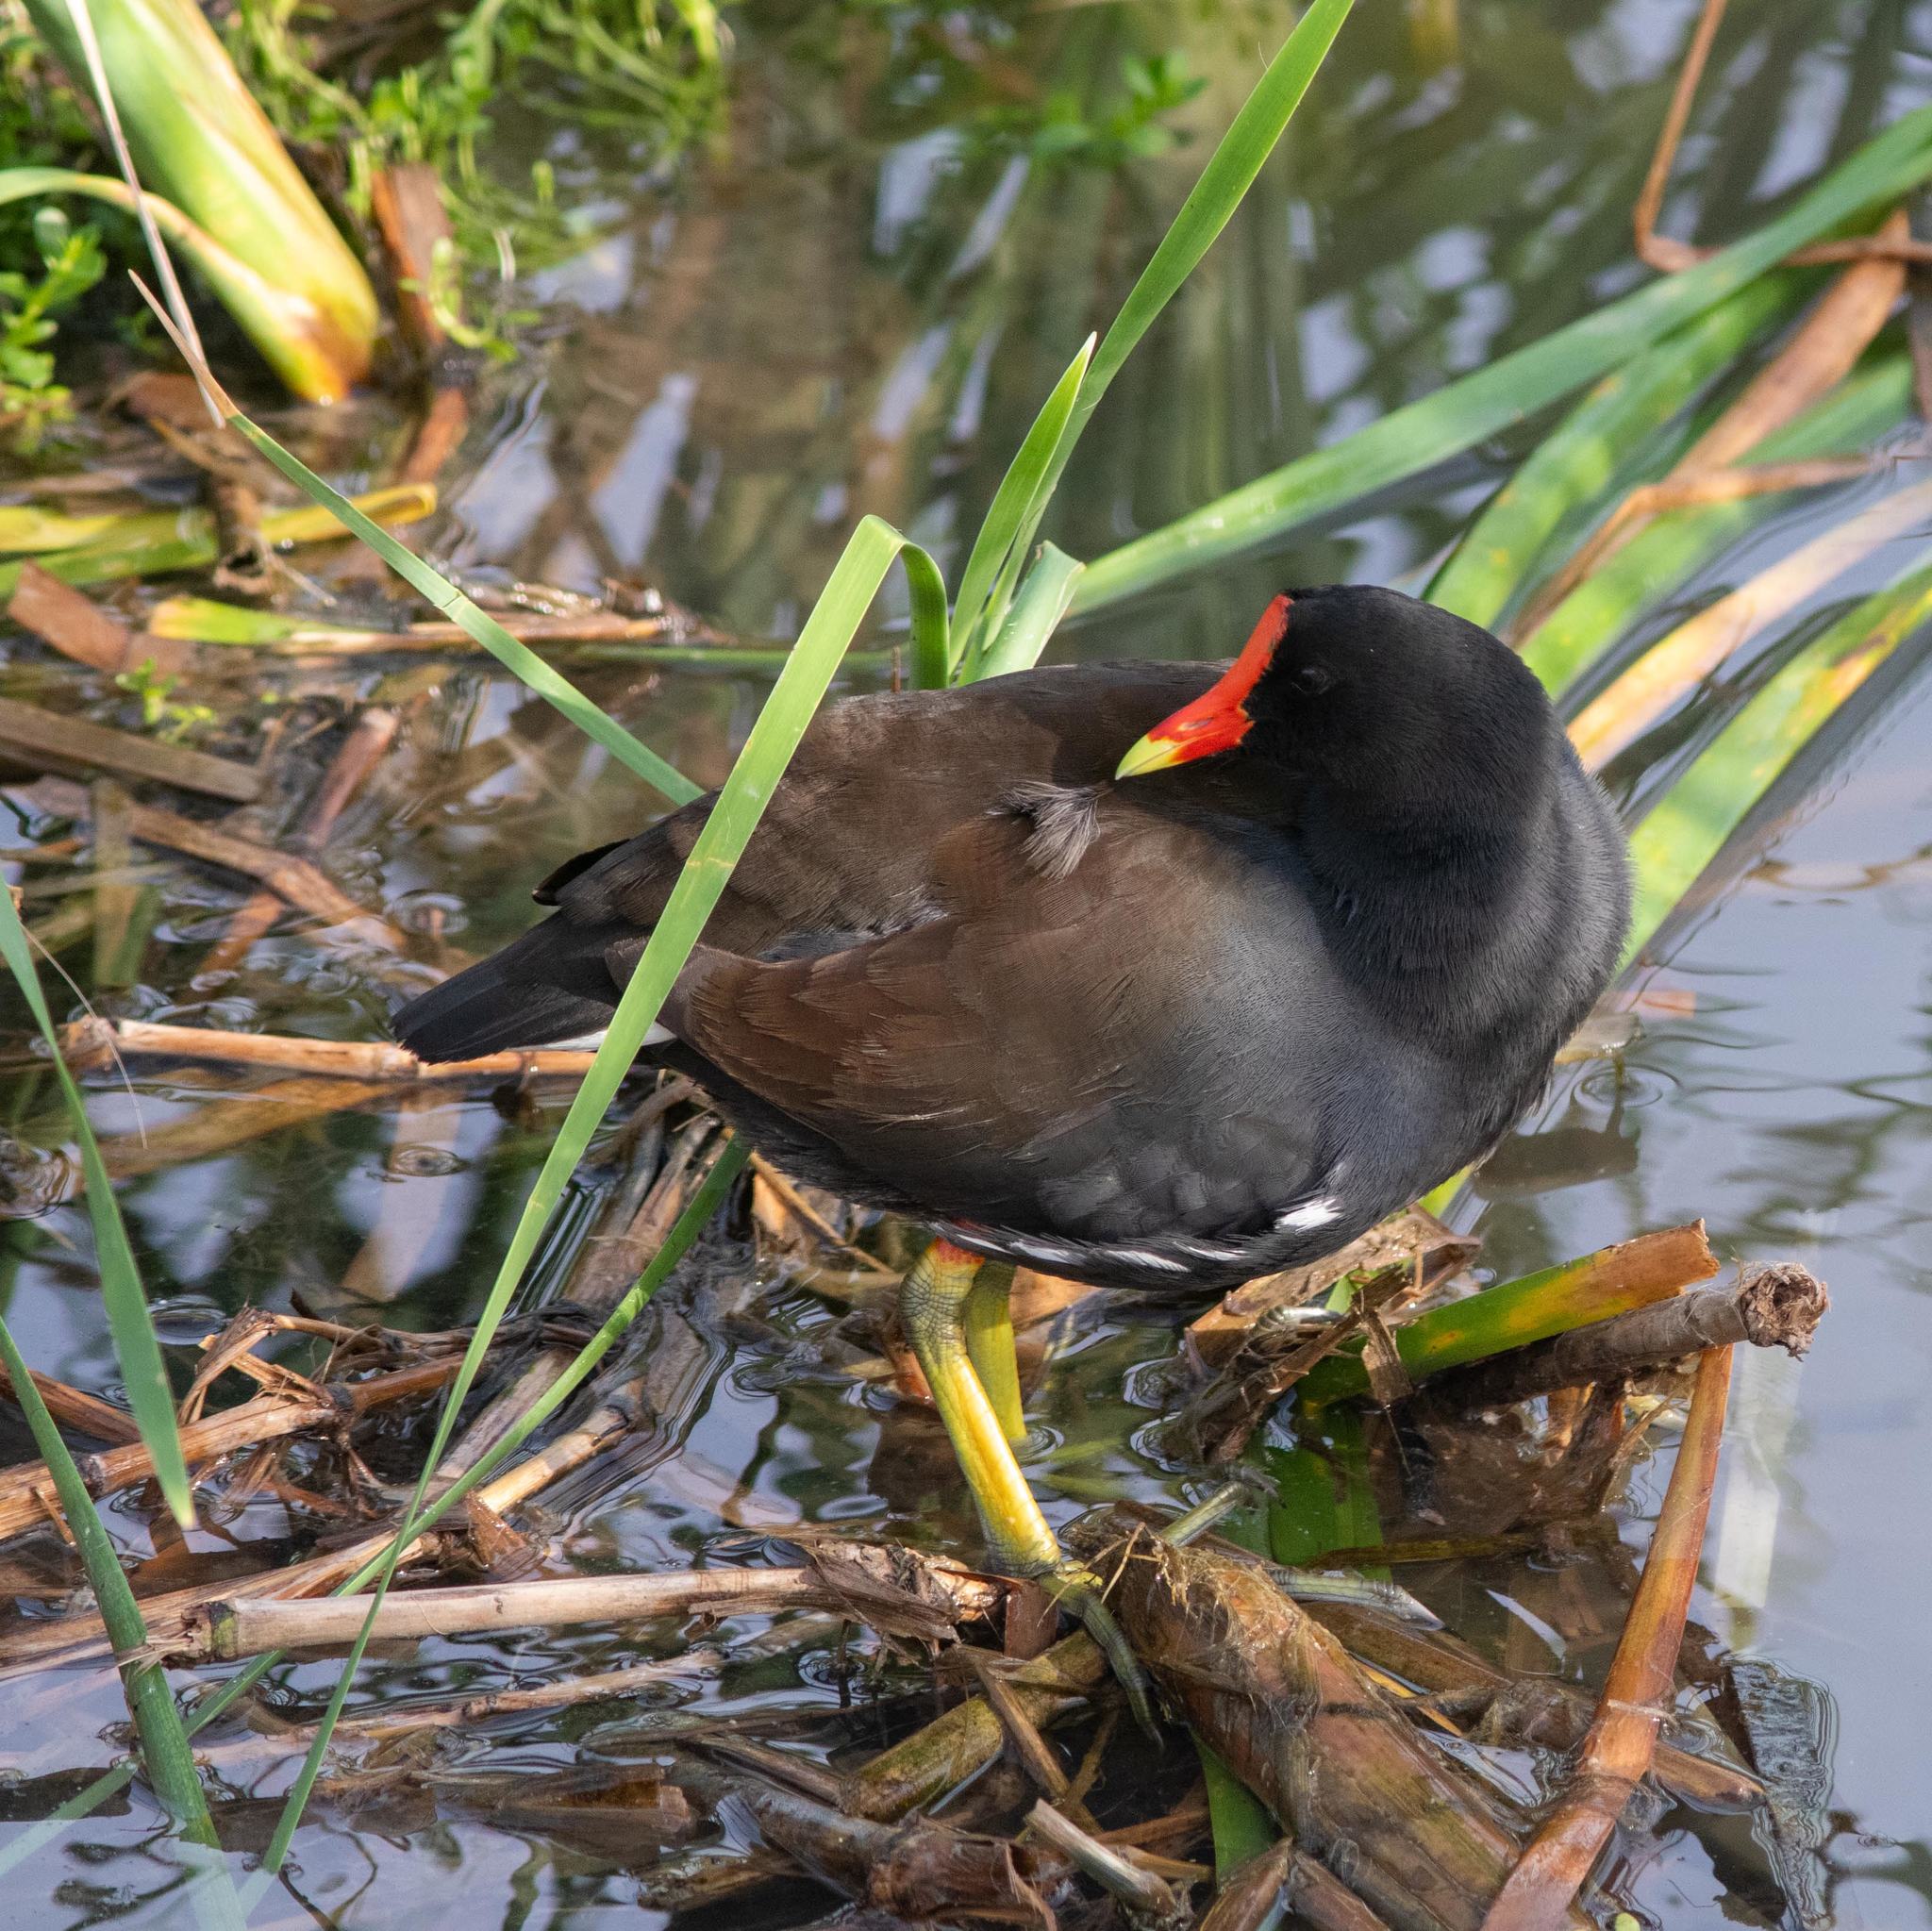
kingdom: Animalia
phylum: Chordata
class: Aves
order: Gruiformes
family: Rallidae
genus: Gallinula
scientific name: Gallinula chloropus
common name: Common moorhen
